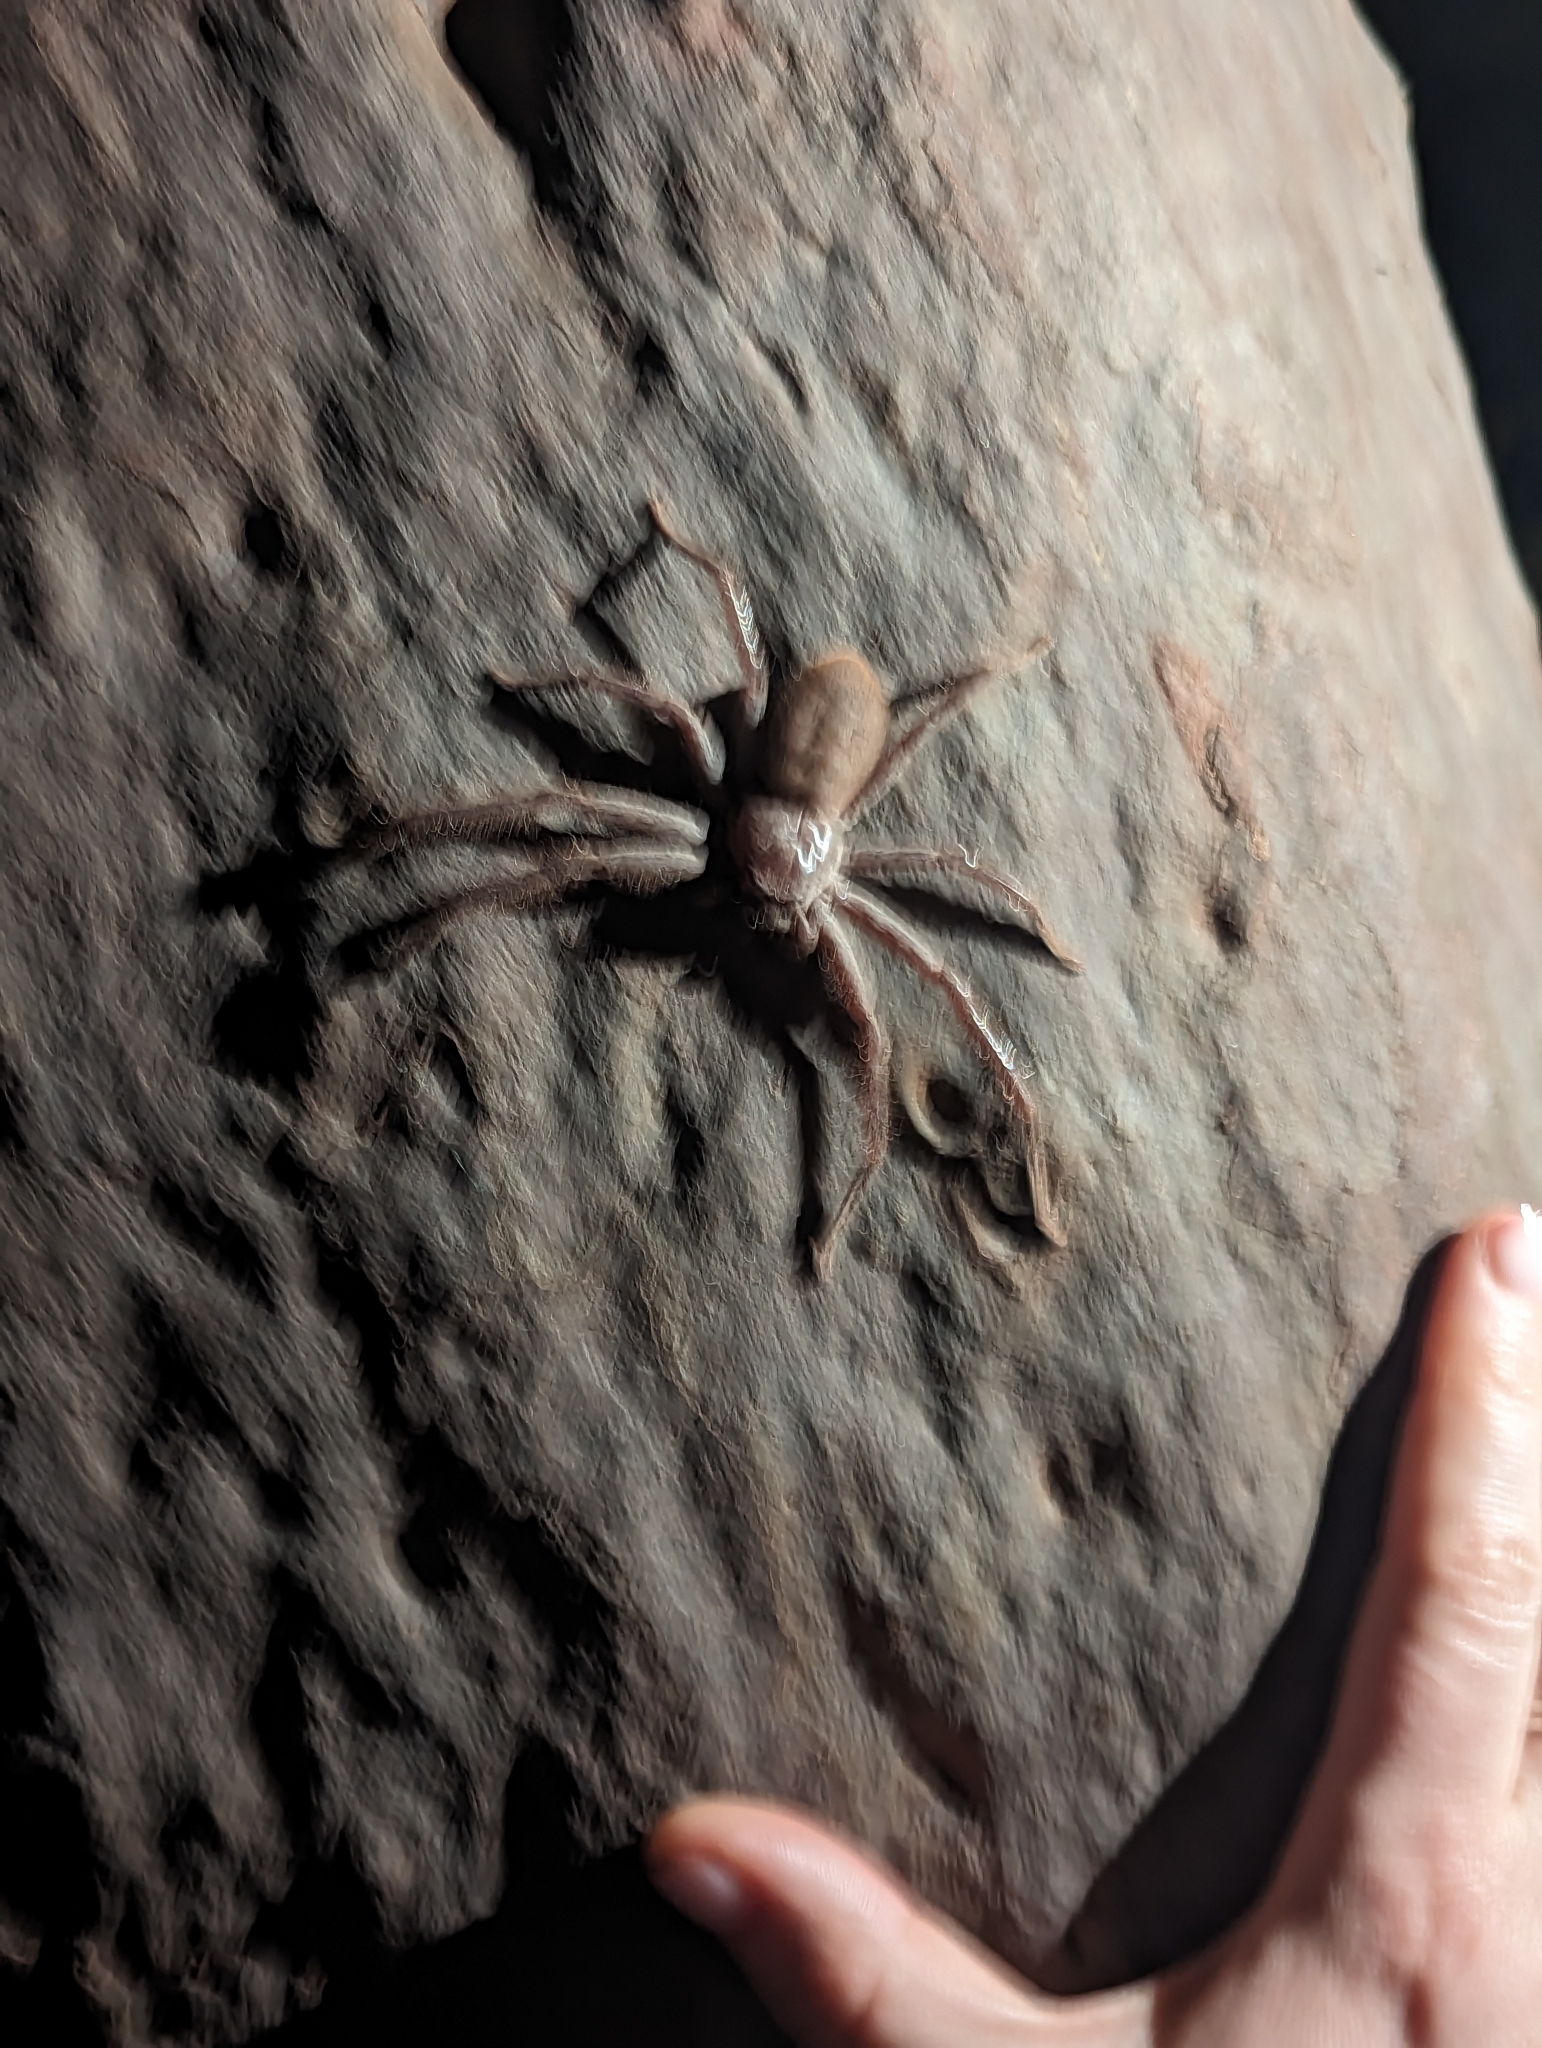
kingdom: Animalia
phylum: Arthropoda
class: Arachnida
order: Araneae
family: Sparassidae
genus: Isopeda
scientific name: Isopeda villosa
